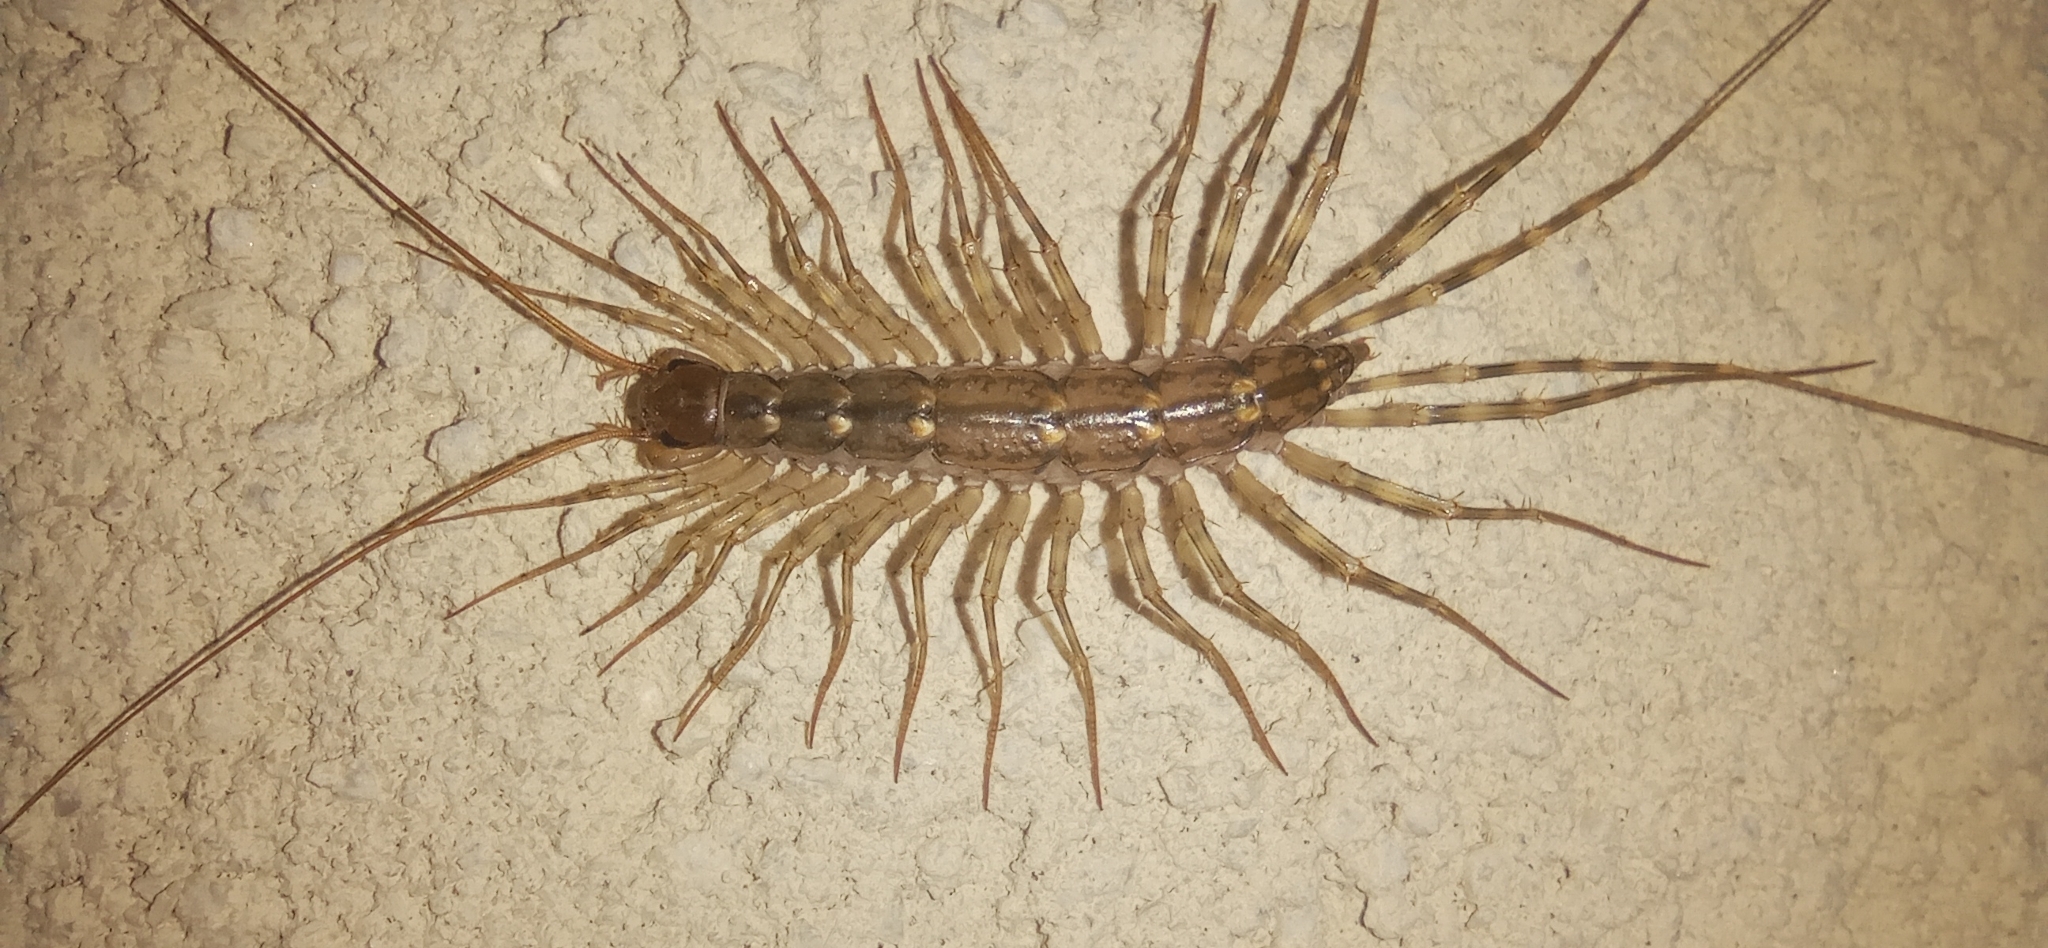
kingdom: Animalia
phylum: Arthropoda
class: Chilopoda
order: Scutigeromorpha
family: Scutigeridae
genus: Scutigera
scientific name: Scutigera coleoptrata
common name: House centipede
